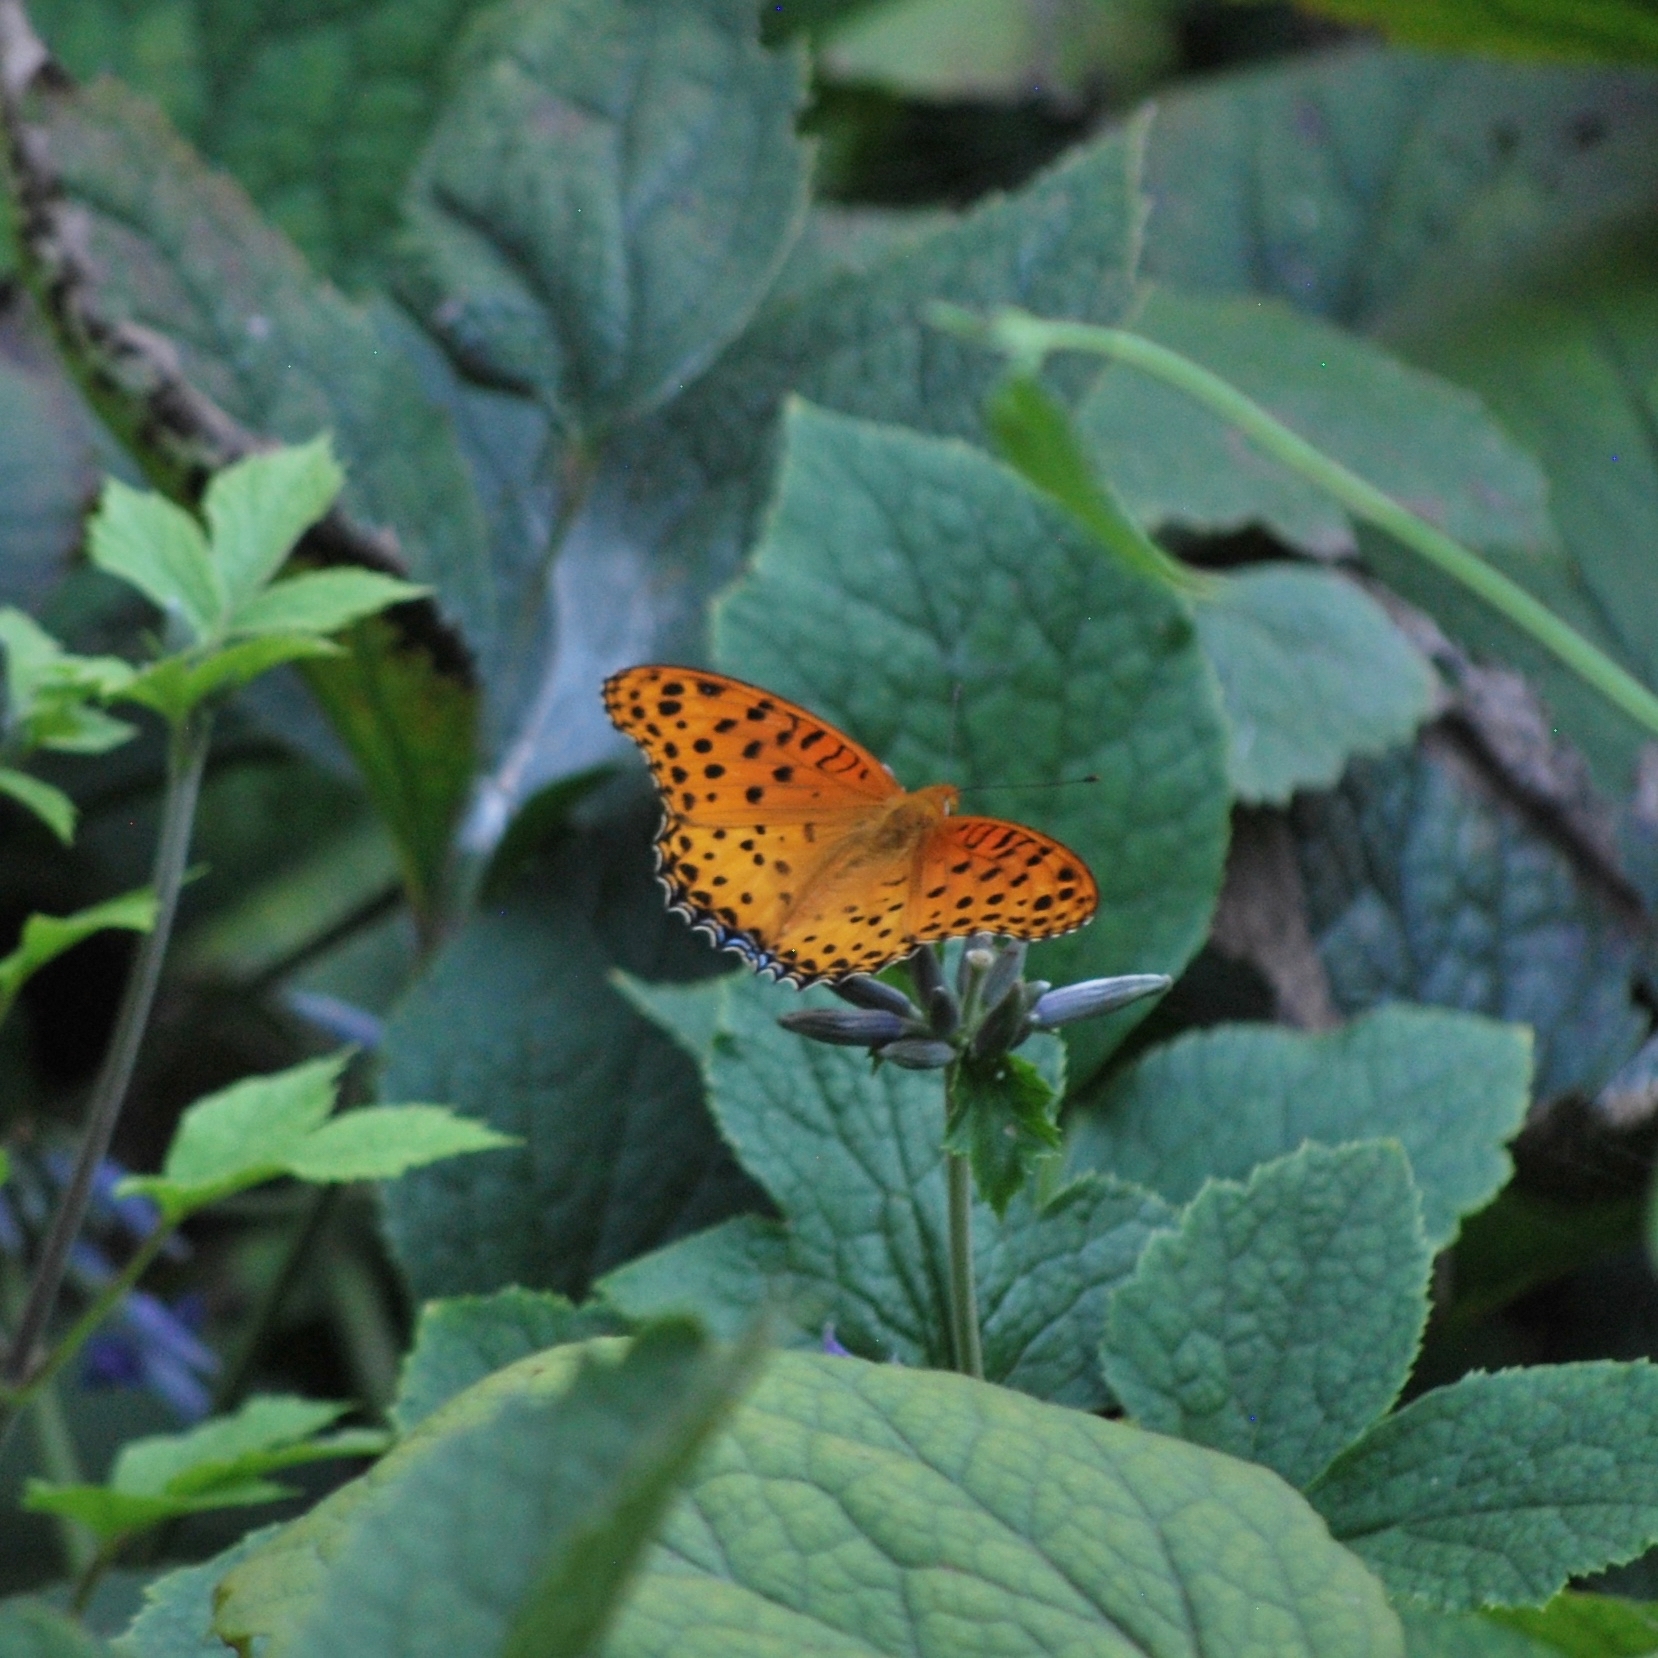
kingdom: Animalia
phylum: Arthropoda
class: Insecta
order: Lepidoptera
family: Nymphalidae
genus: Argynnis
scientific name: Argynnis hyperbius
